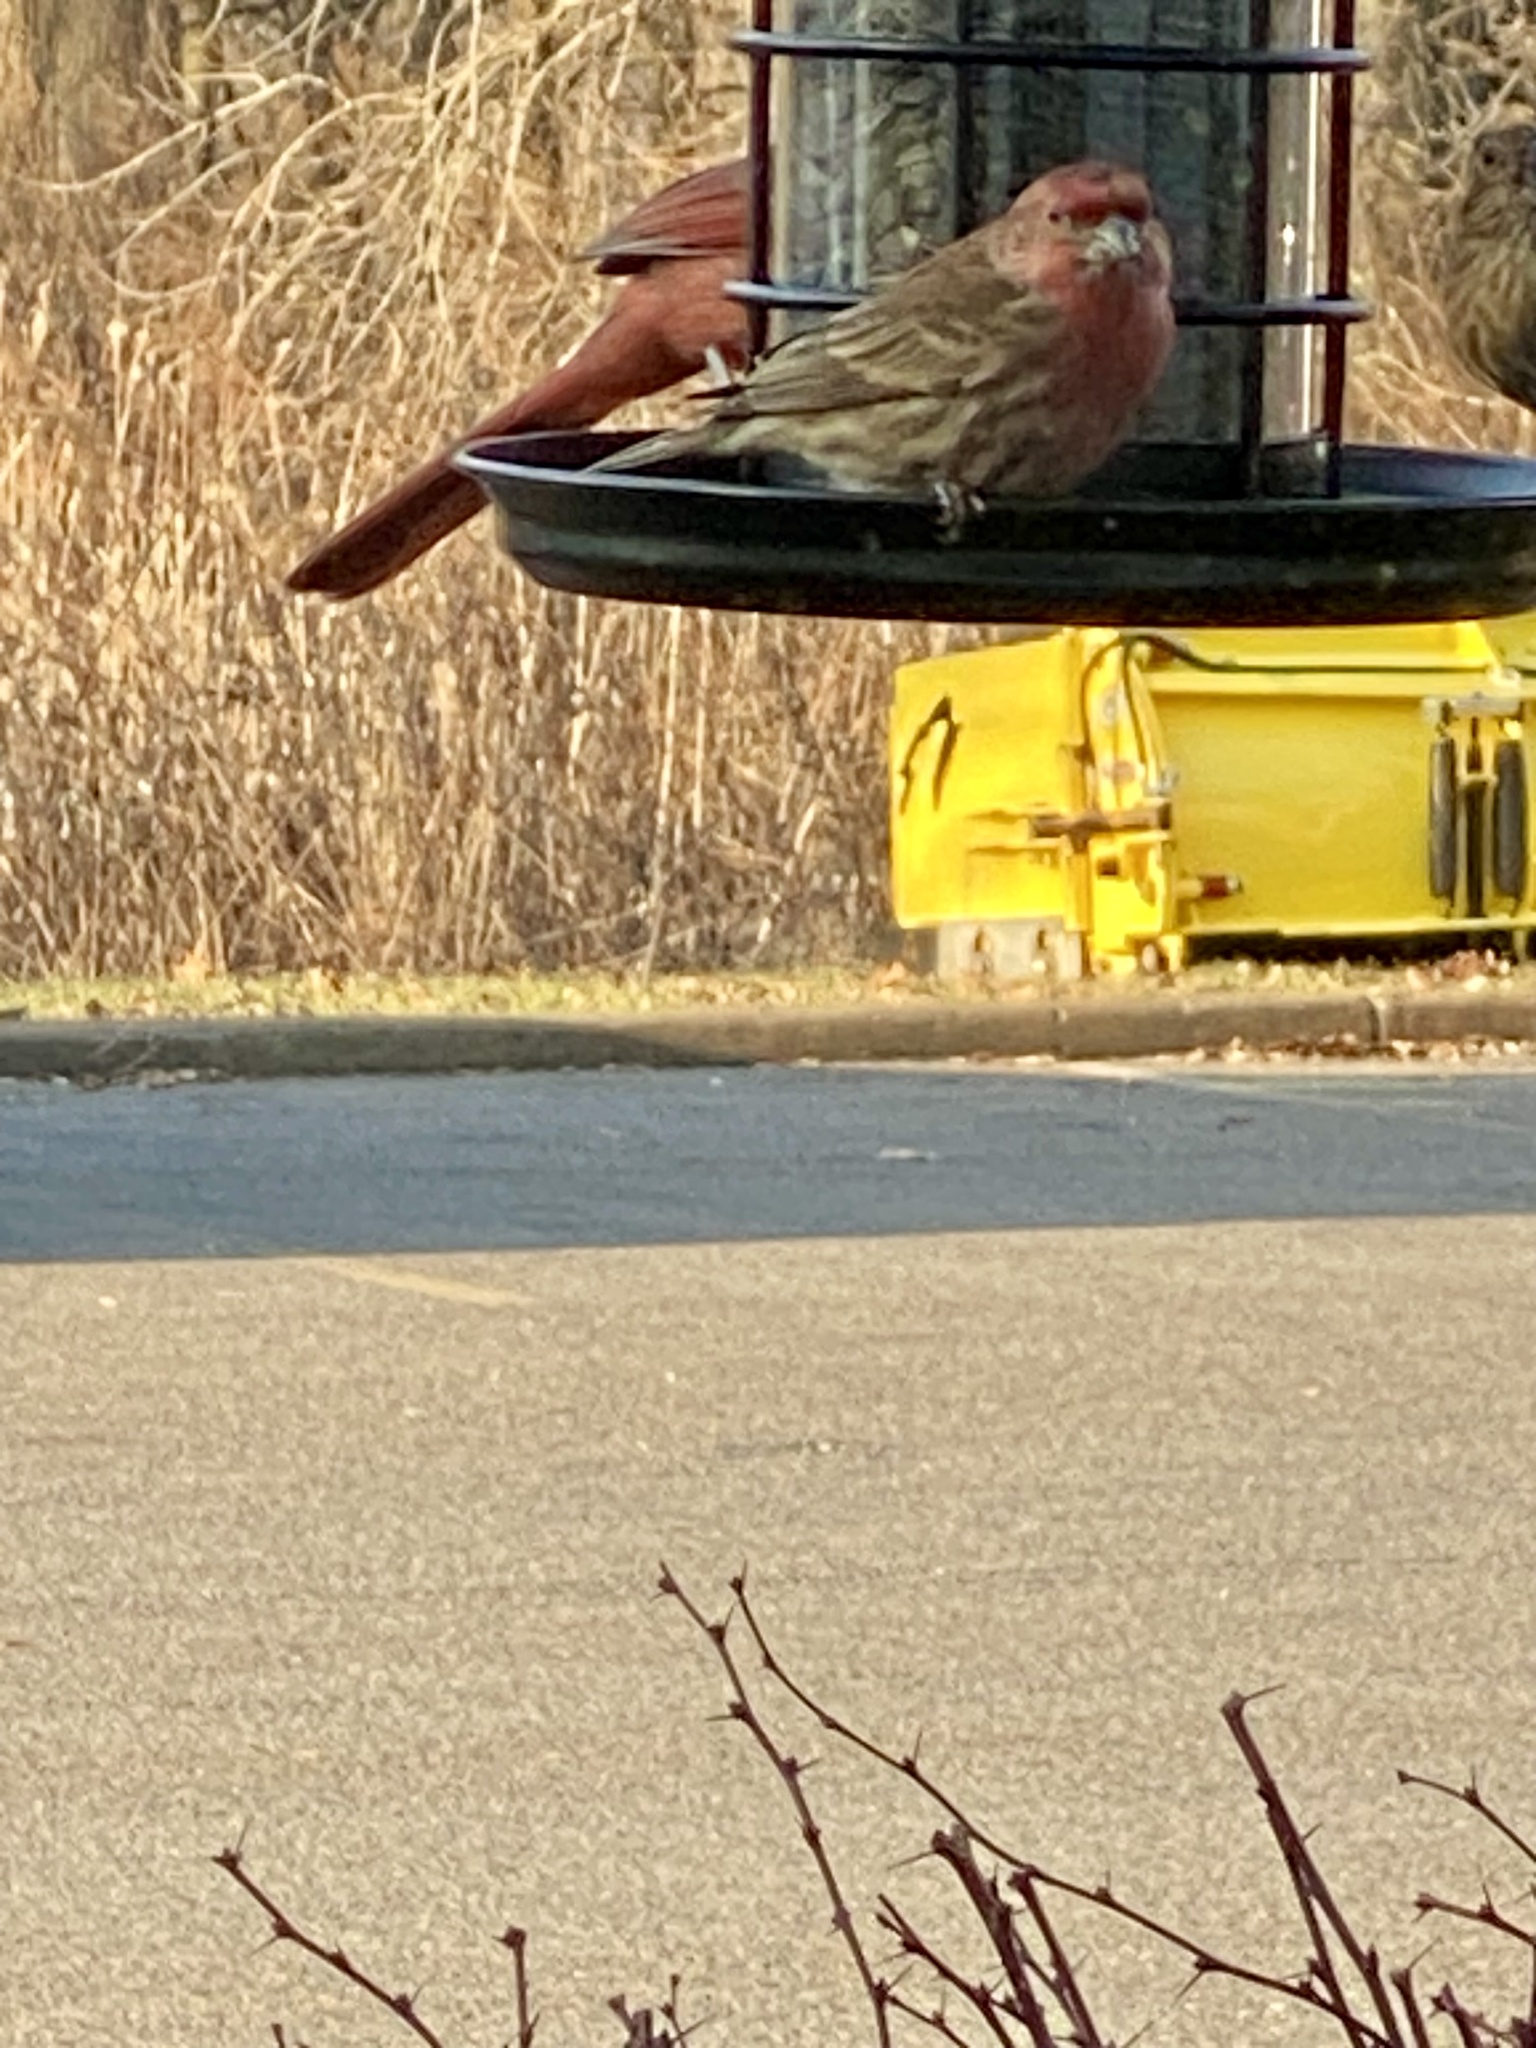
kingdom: Animalia
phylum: Chordata
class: Aves
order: Passeriformes
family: Fringillidae
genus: Haemorhous
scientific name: Haemorhous mexicanus
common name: House finch
